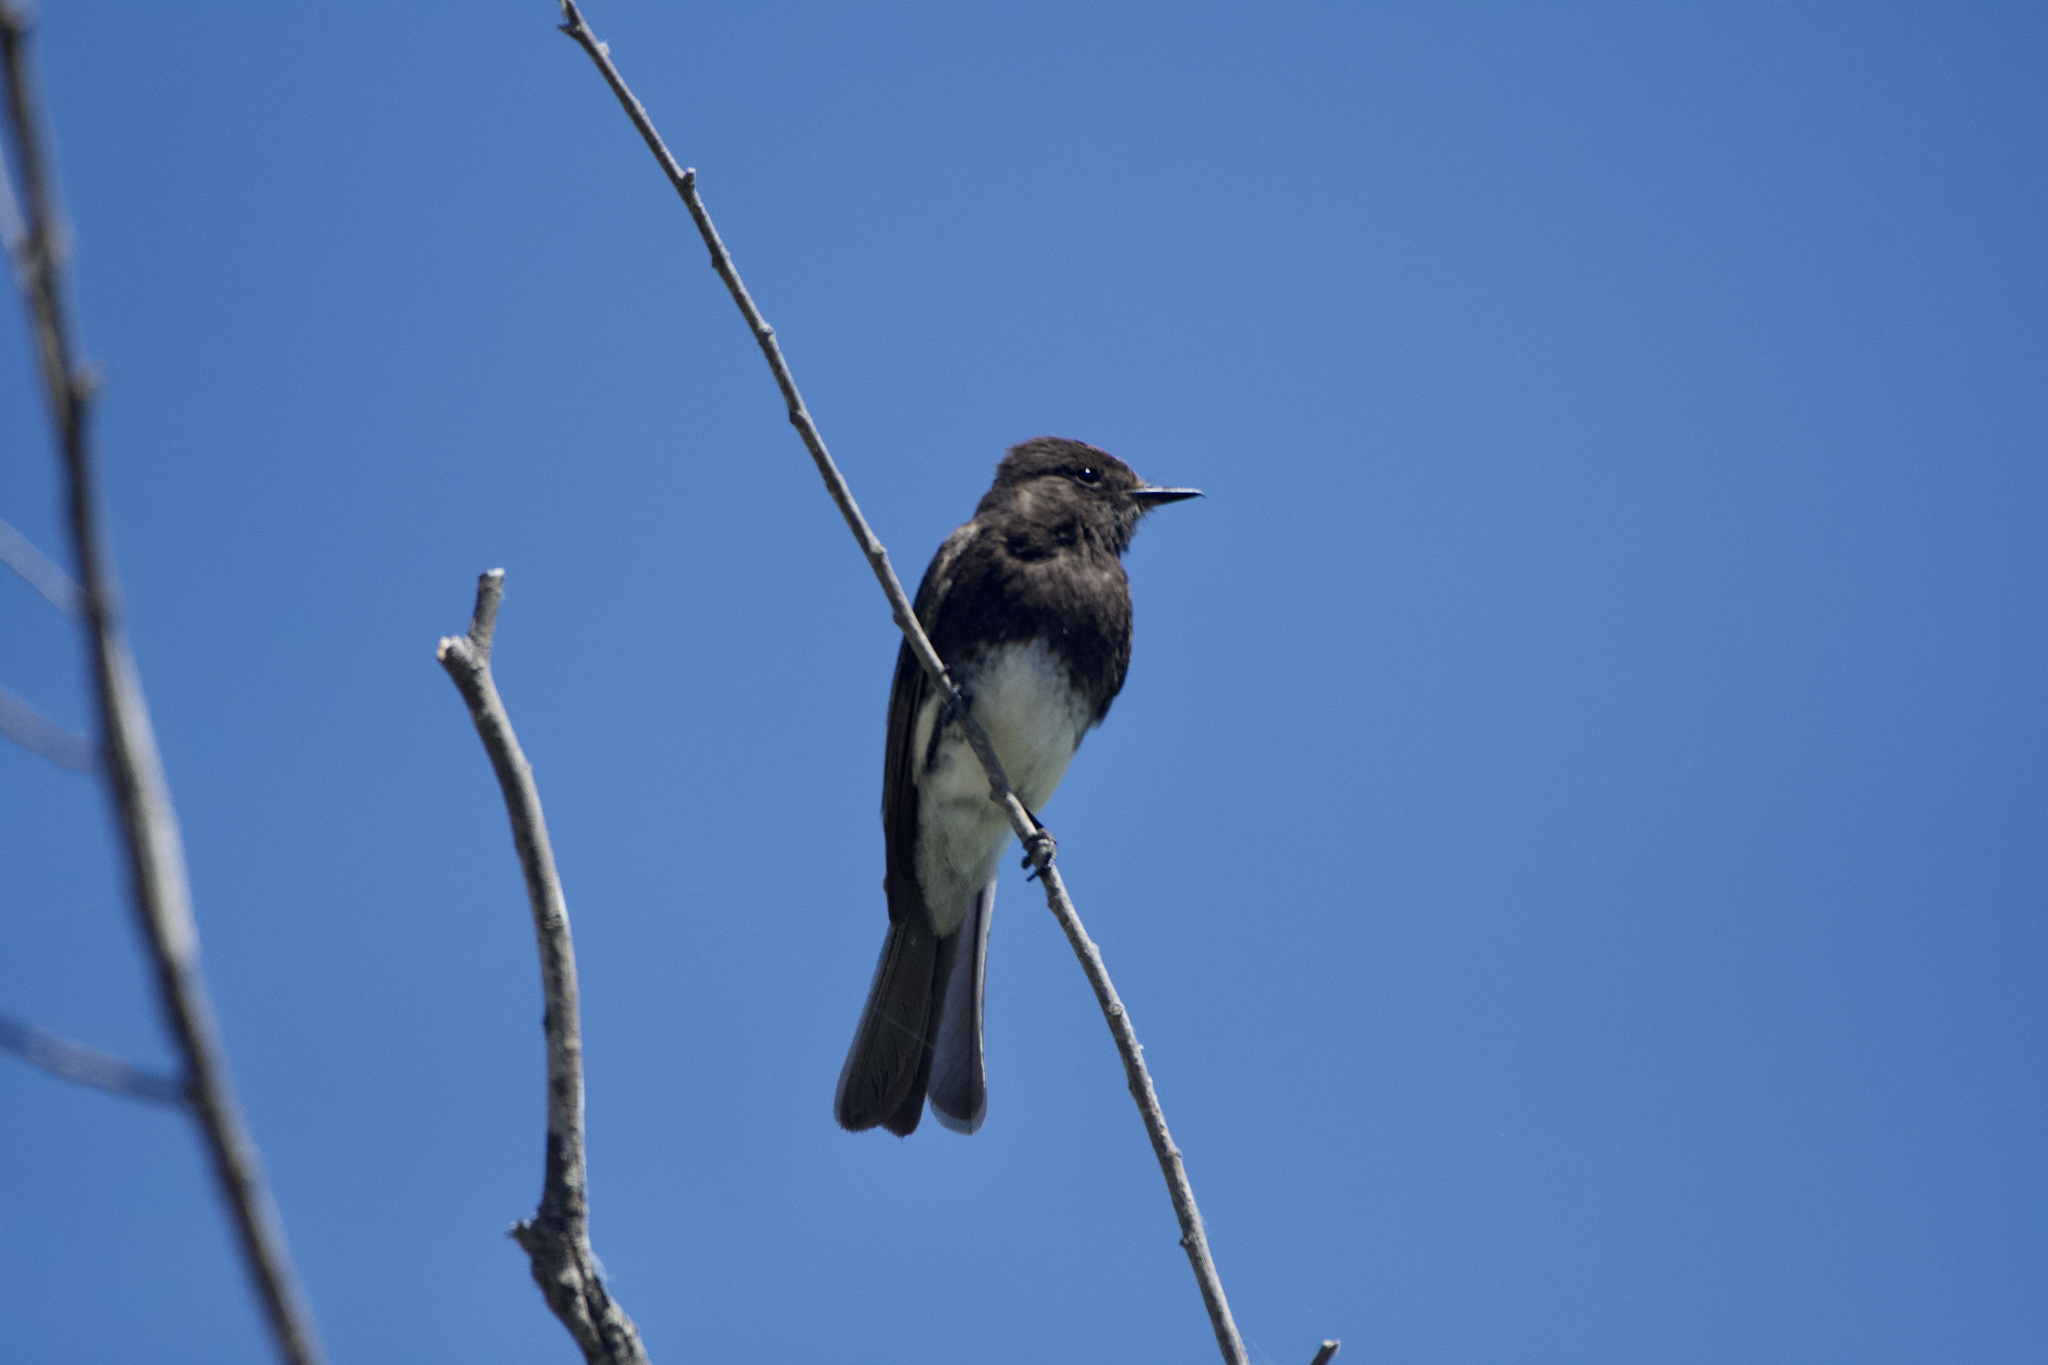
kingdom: Animalia
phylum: Chordata
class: Aves
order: Passeriformes
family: Tyrannidae
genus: Sayornis
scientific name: Sayornis nigricans
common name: Black phoebe
